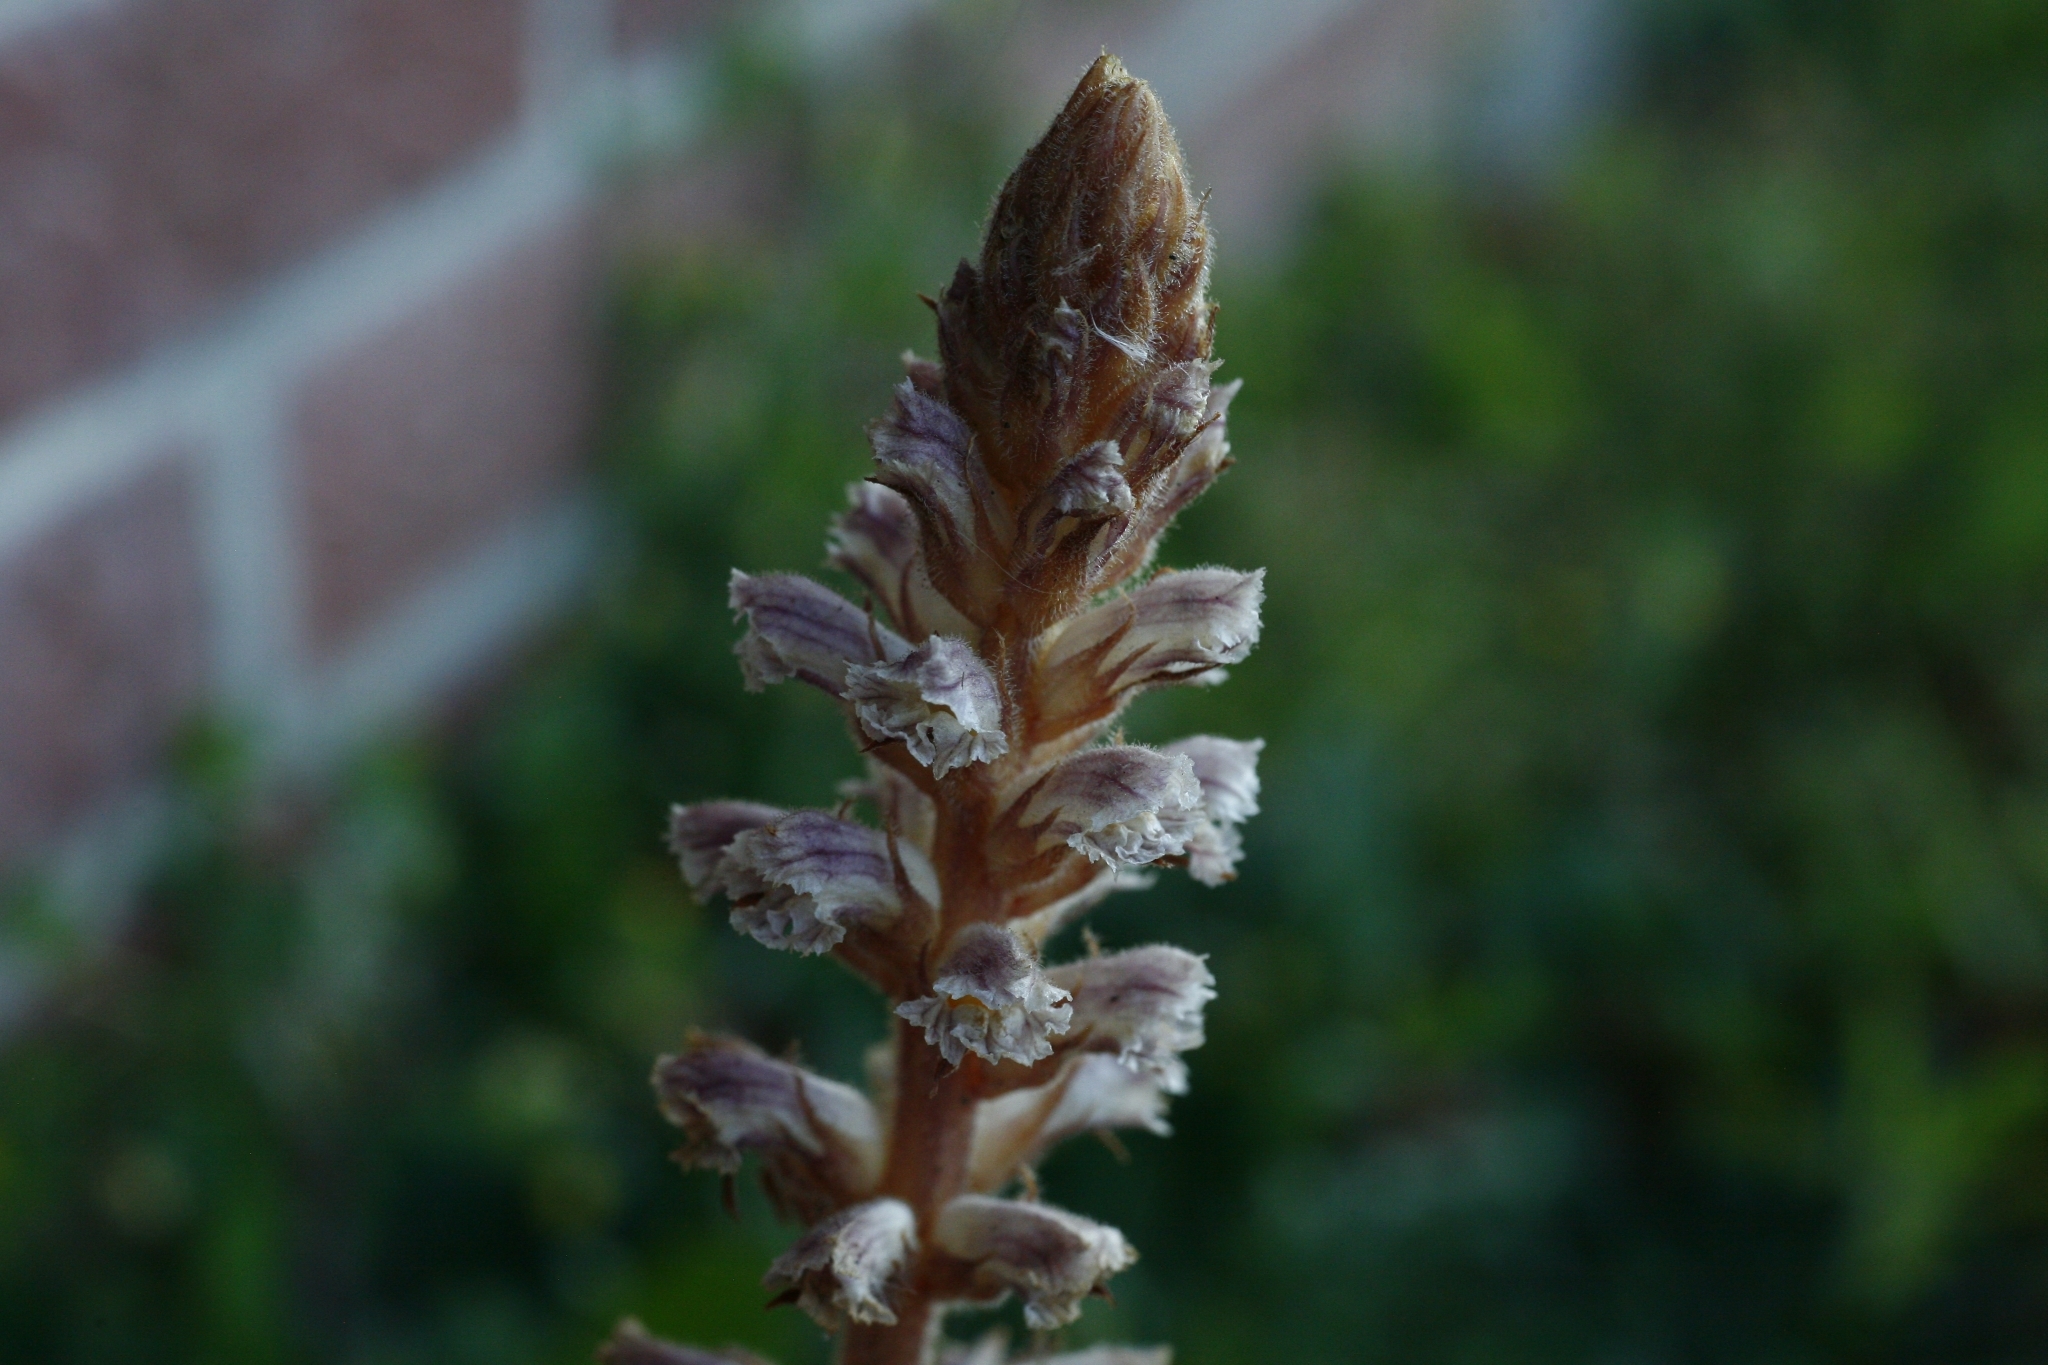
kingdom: Plantae
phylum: Tracheophyta
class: Magnoliopsida
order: Lamiales
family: Orobanchaceae
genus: Orobanche
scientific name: Orobanche minor
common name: Common broomrape
